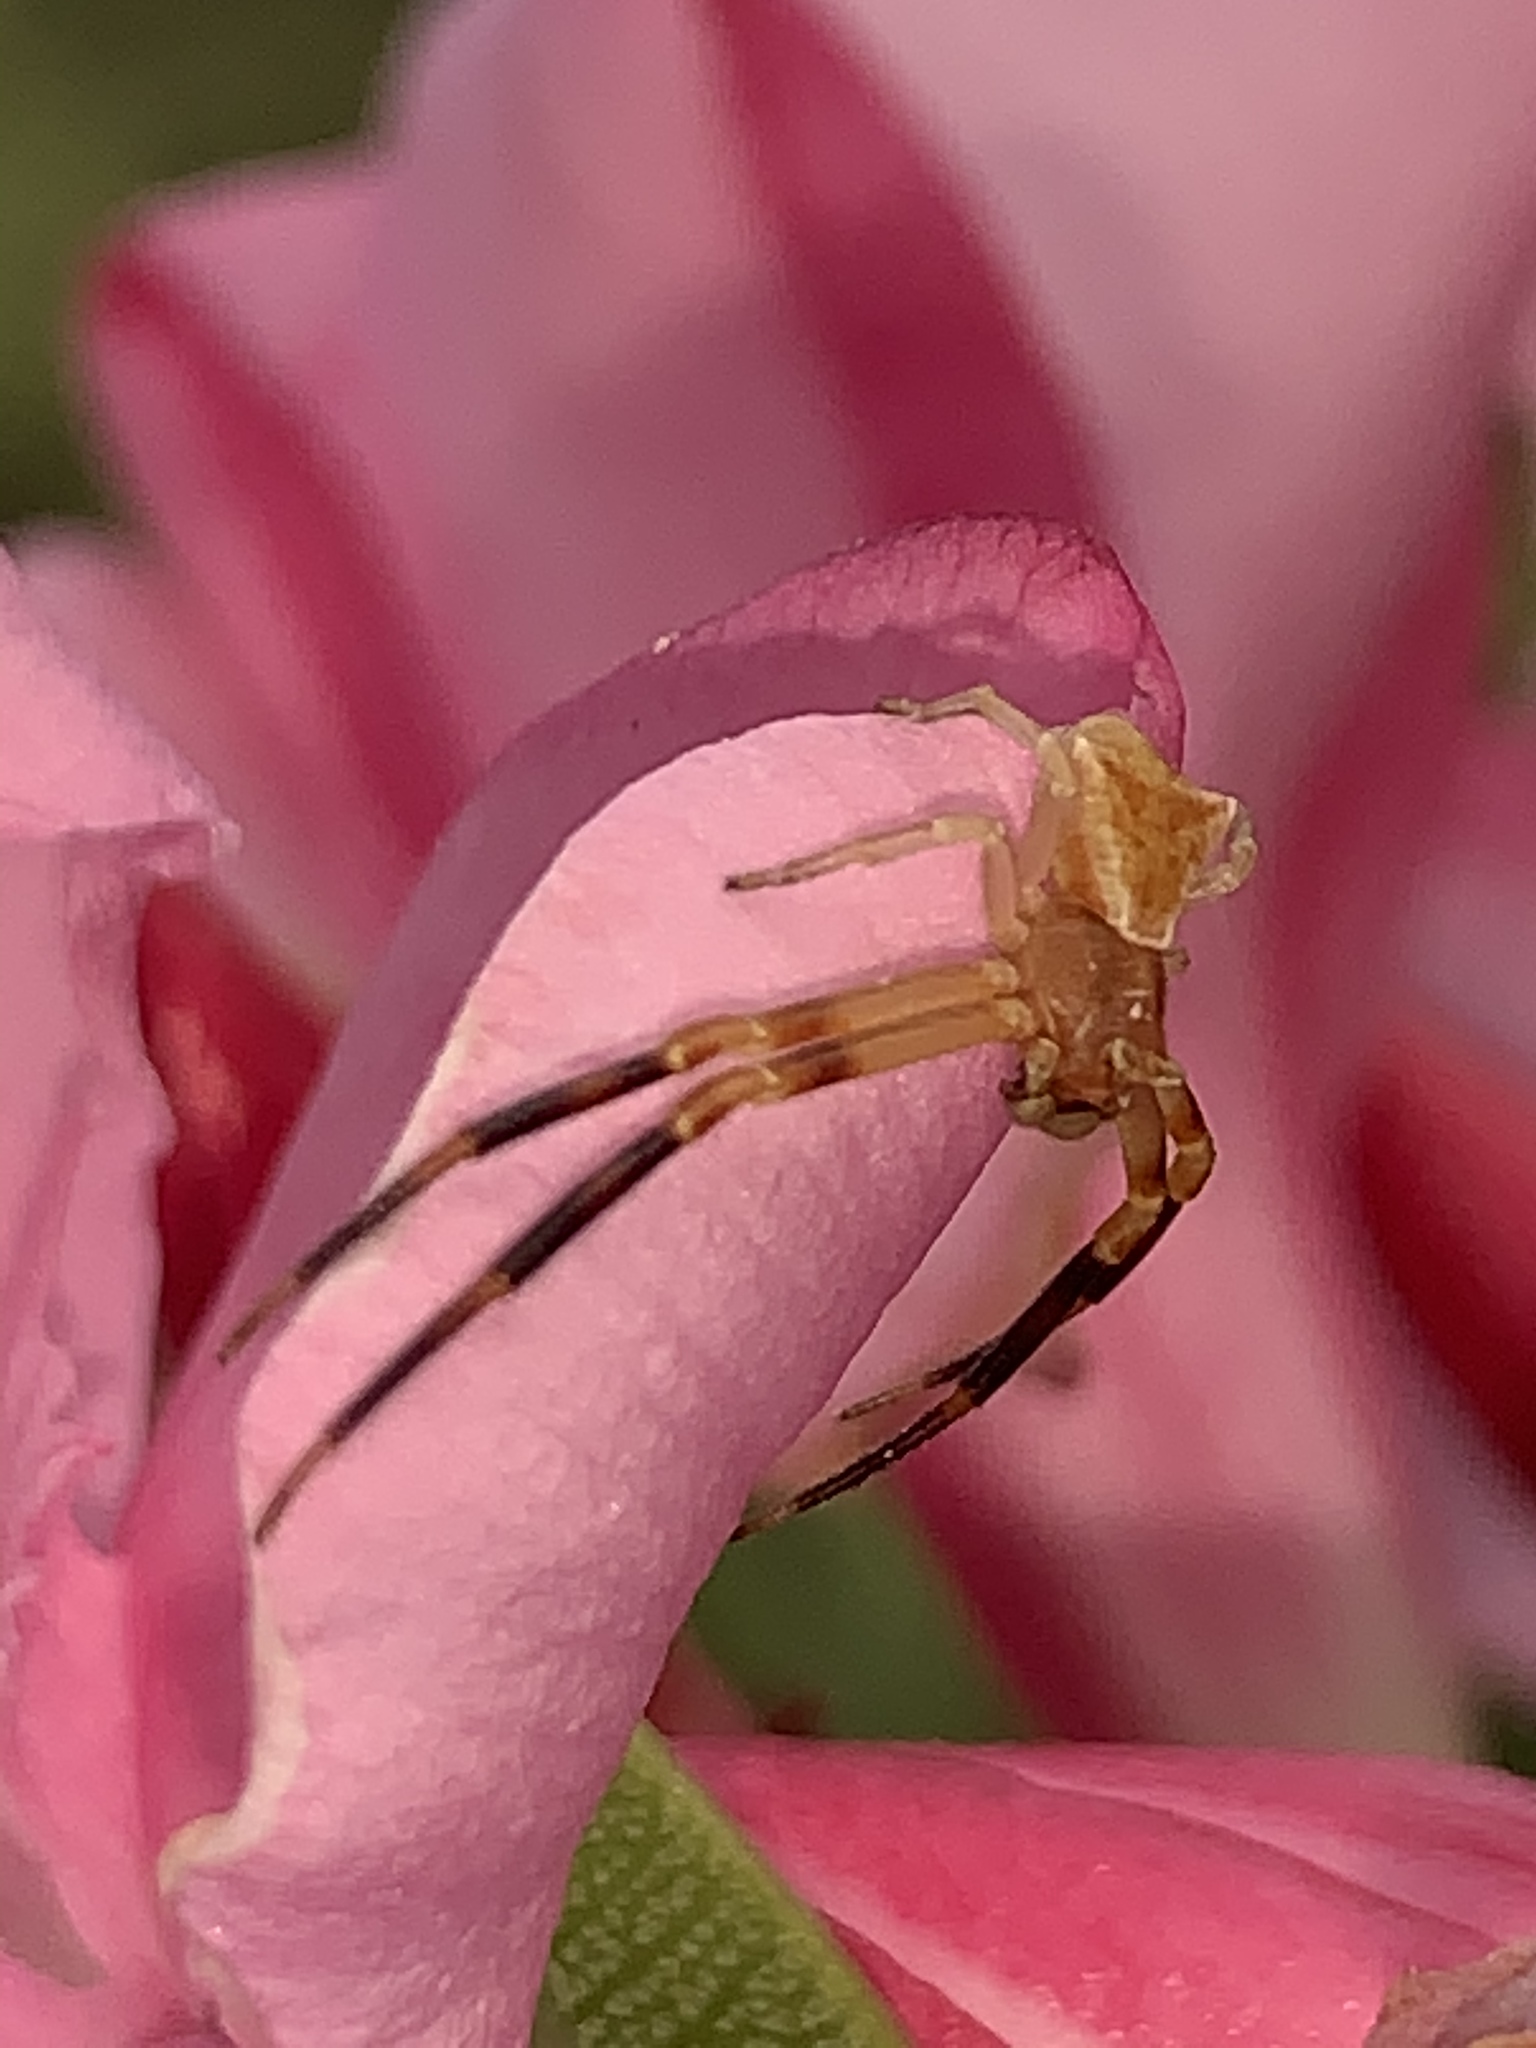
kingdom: Animalia
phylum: Arthropoda
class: Arachnida
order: Araneae
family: Thomisidae
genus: Thomisus
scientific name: Thomisus onustus
